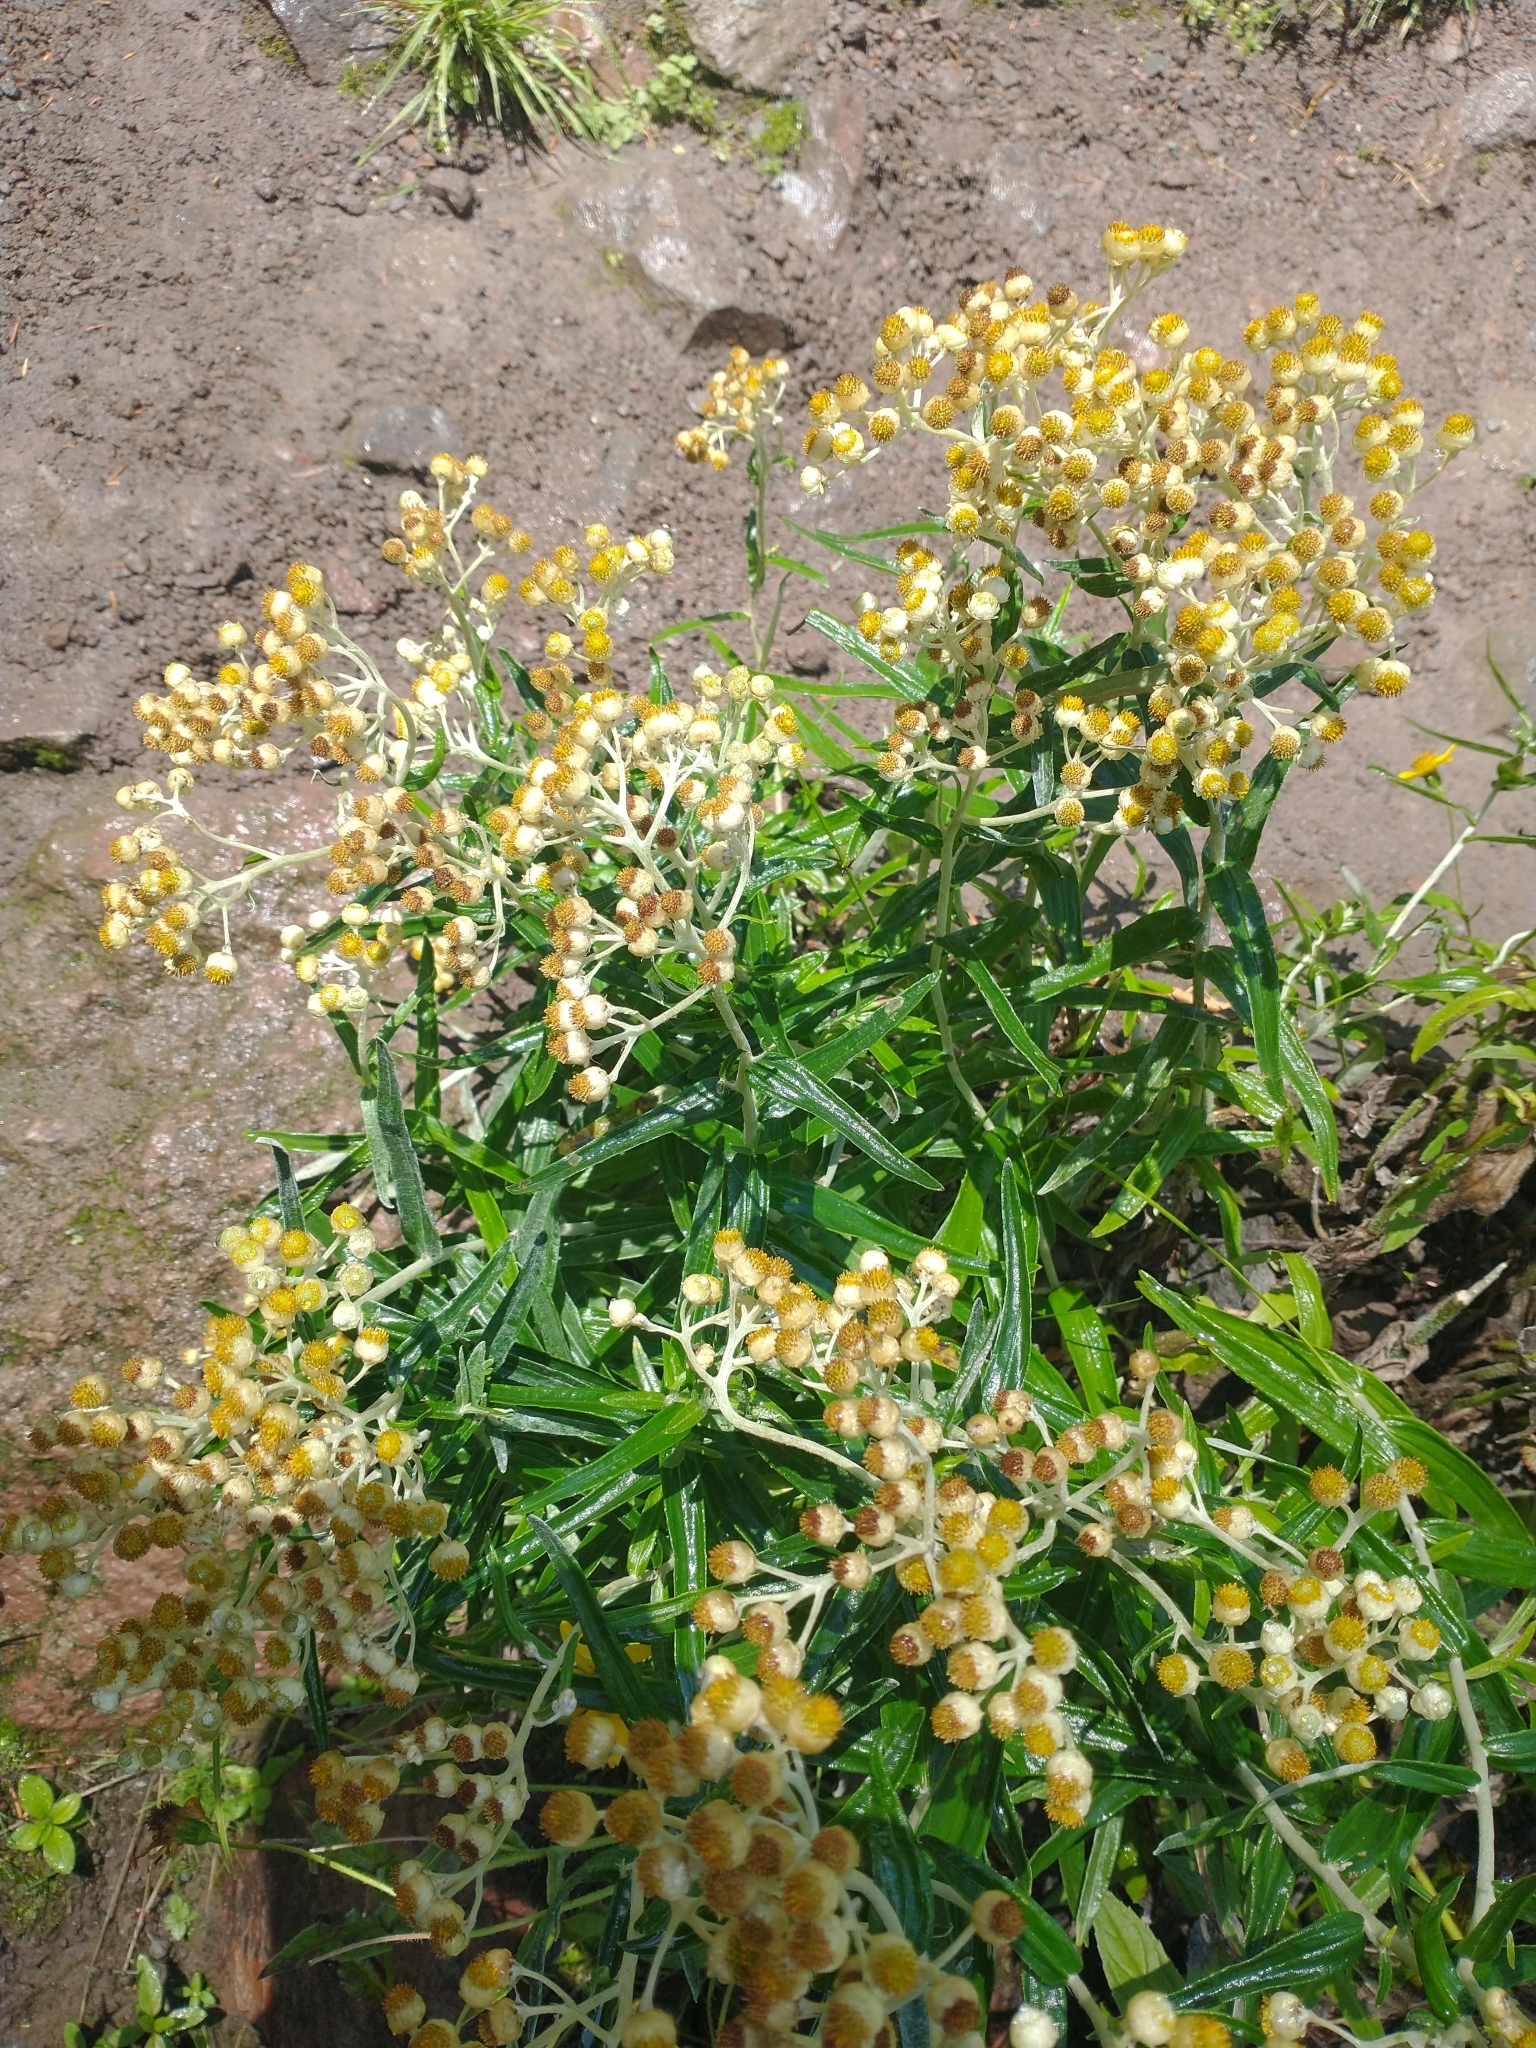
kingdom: Plantae
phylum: Tracheophyta
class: Magnoliopsida
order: Asterales
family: Asteraceae
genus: Anaphalis
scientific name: Anaphalis margaritacea
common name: Pearly everlasting
